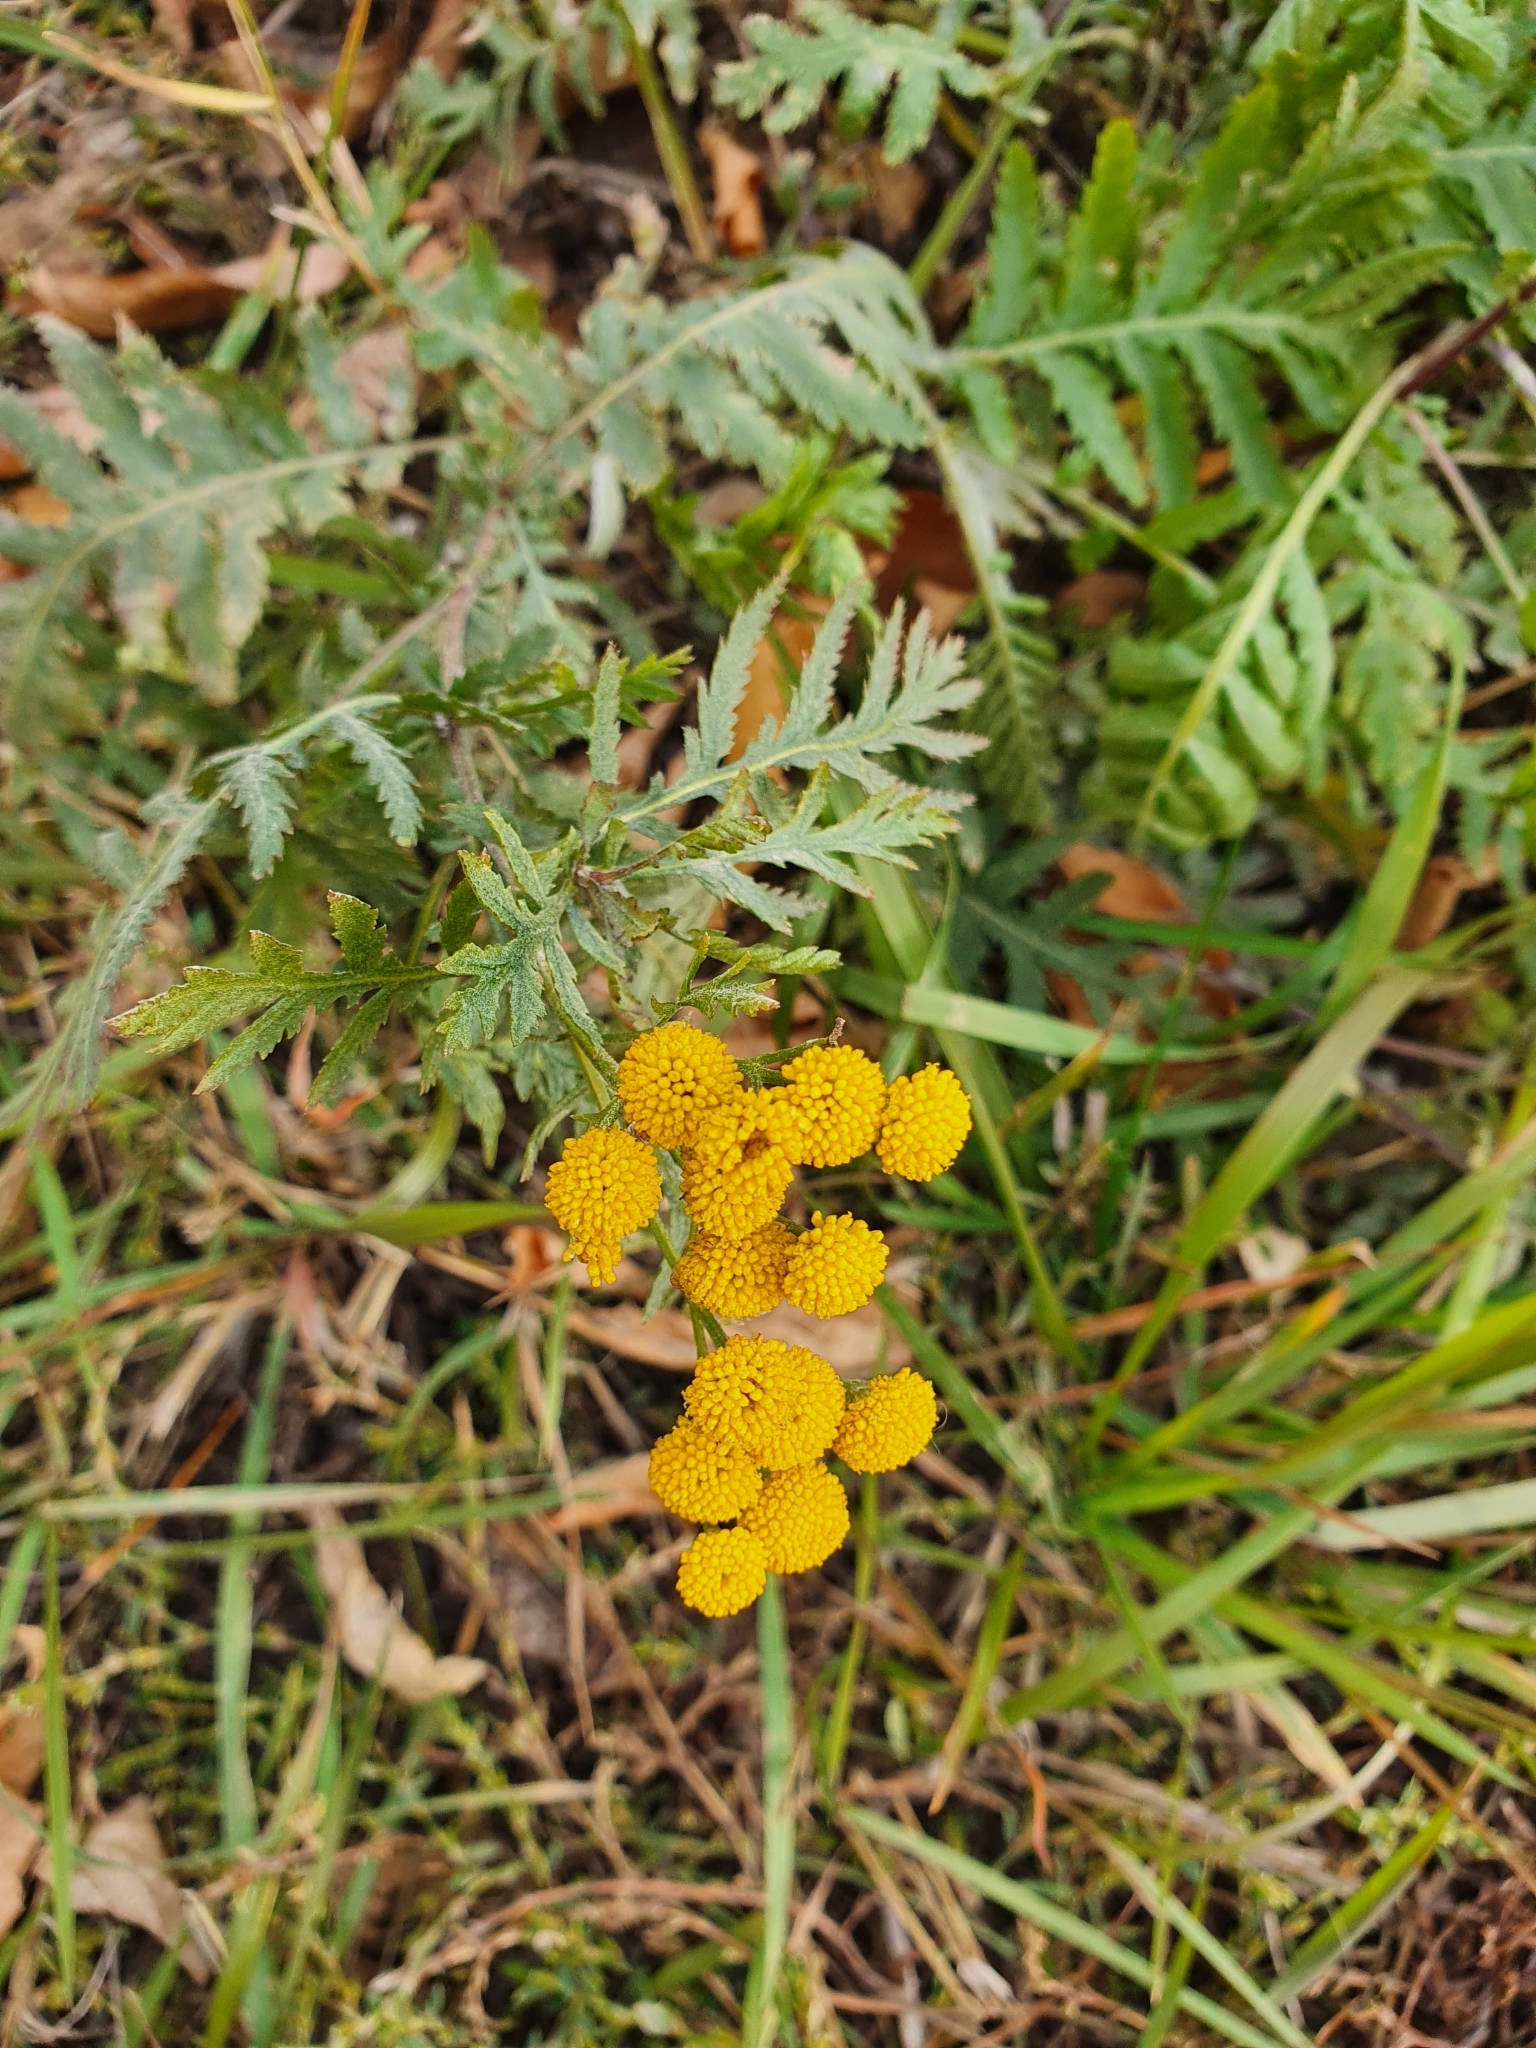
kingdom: Plantae
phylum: Tracheophyta
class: Magnoliopsida
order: Asterales
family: Asteraceae
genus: Tanacetum
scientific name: Tanacetum vulgare
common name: Common tansy
